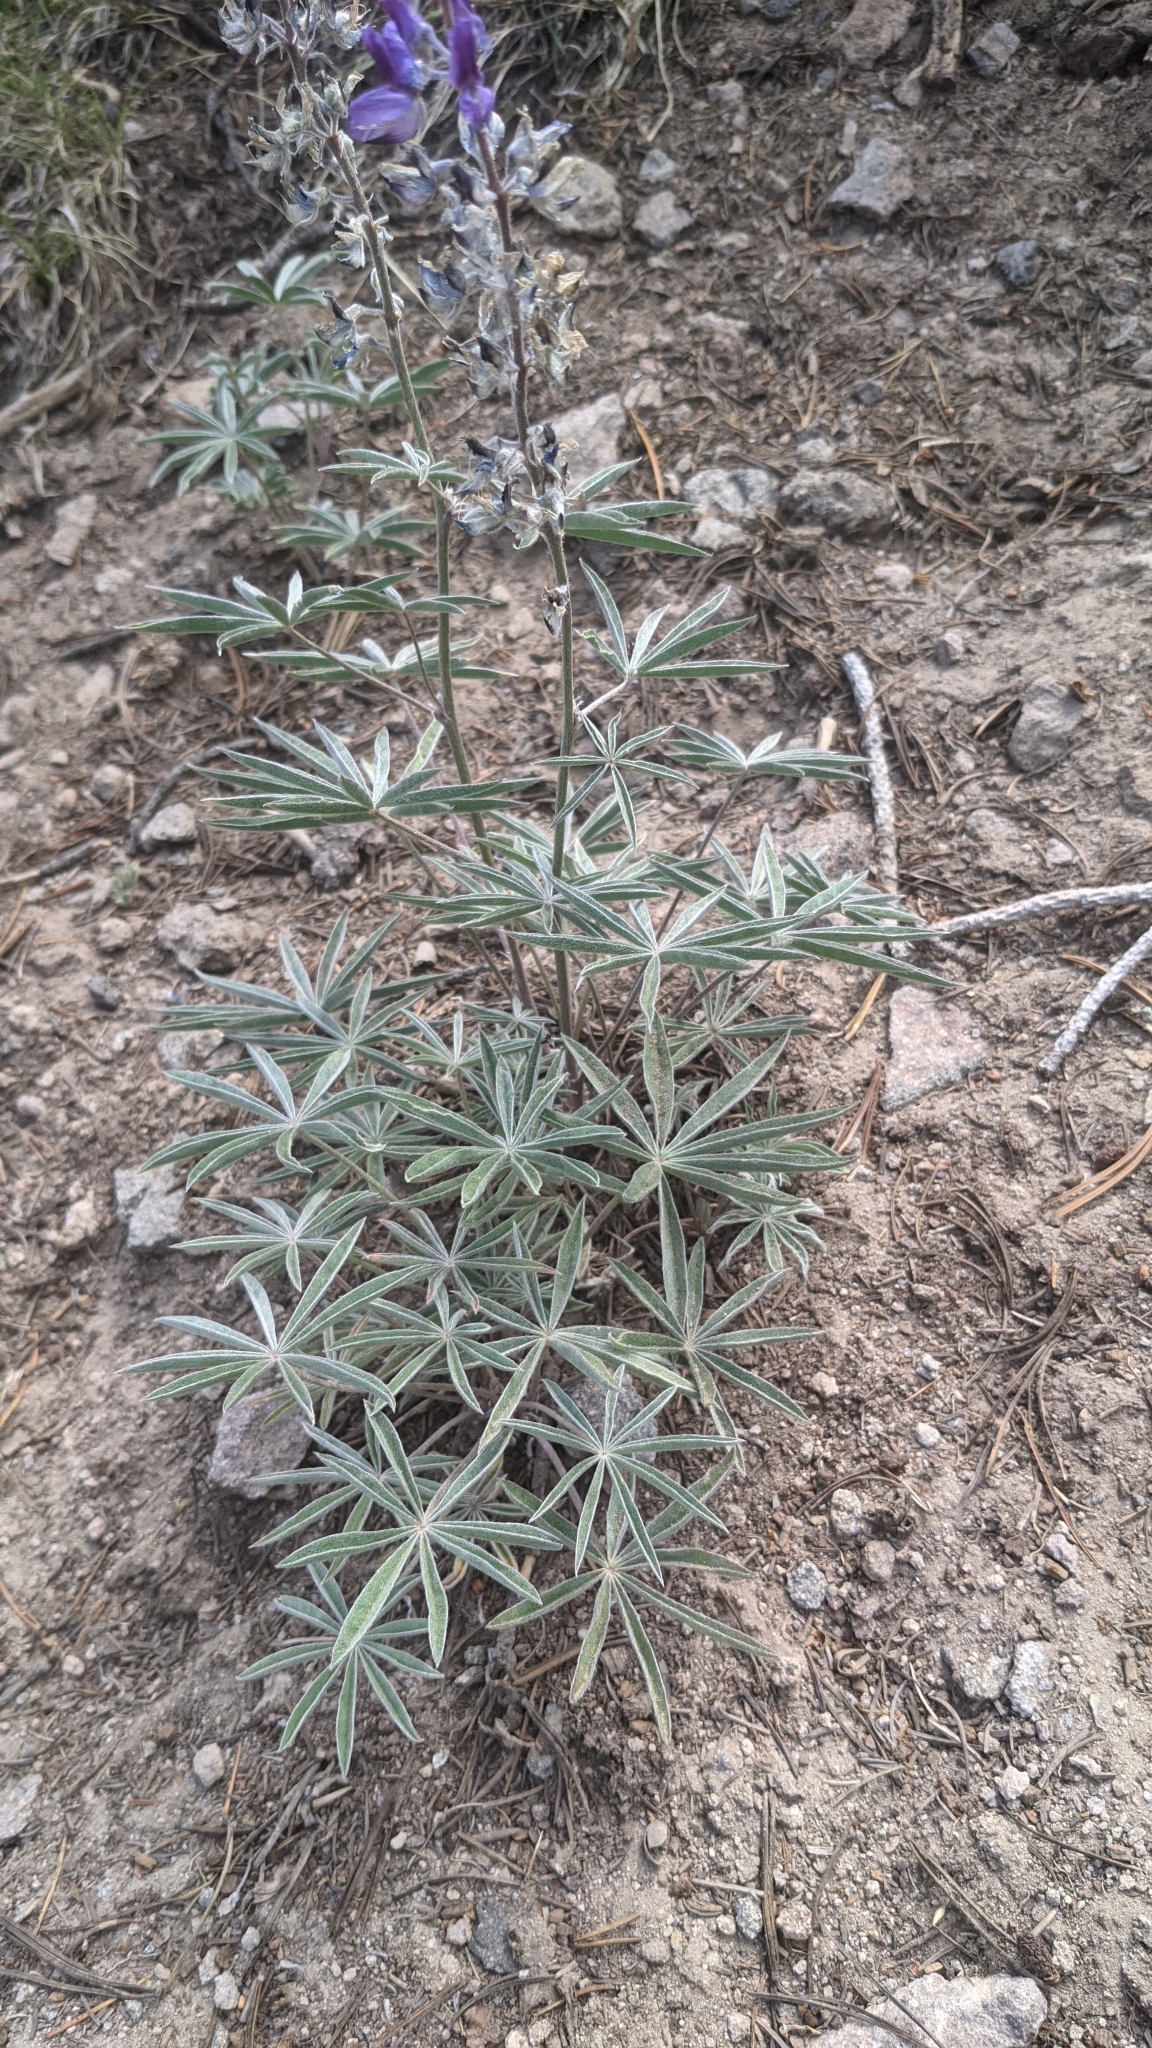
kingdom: Plantae
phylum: Tracheophyta
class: Magnoliopsida
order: Fabales
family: Fabaceae
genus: Lupinus
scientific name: Lupinus argenteus
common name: Silvery lupine
